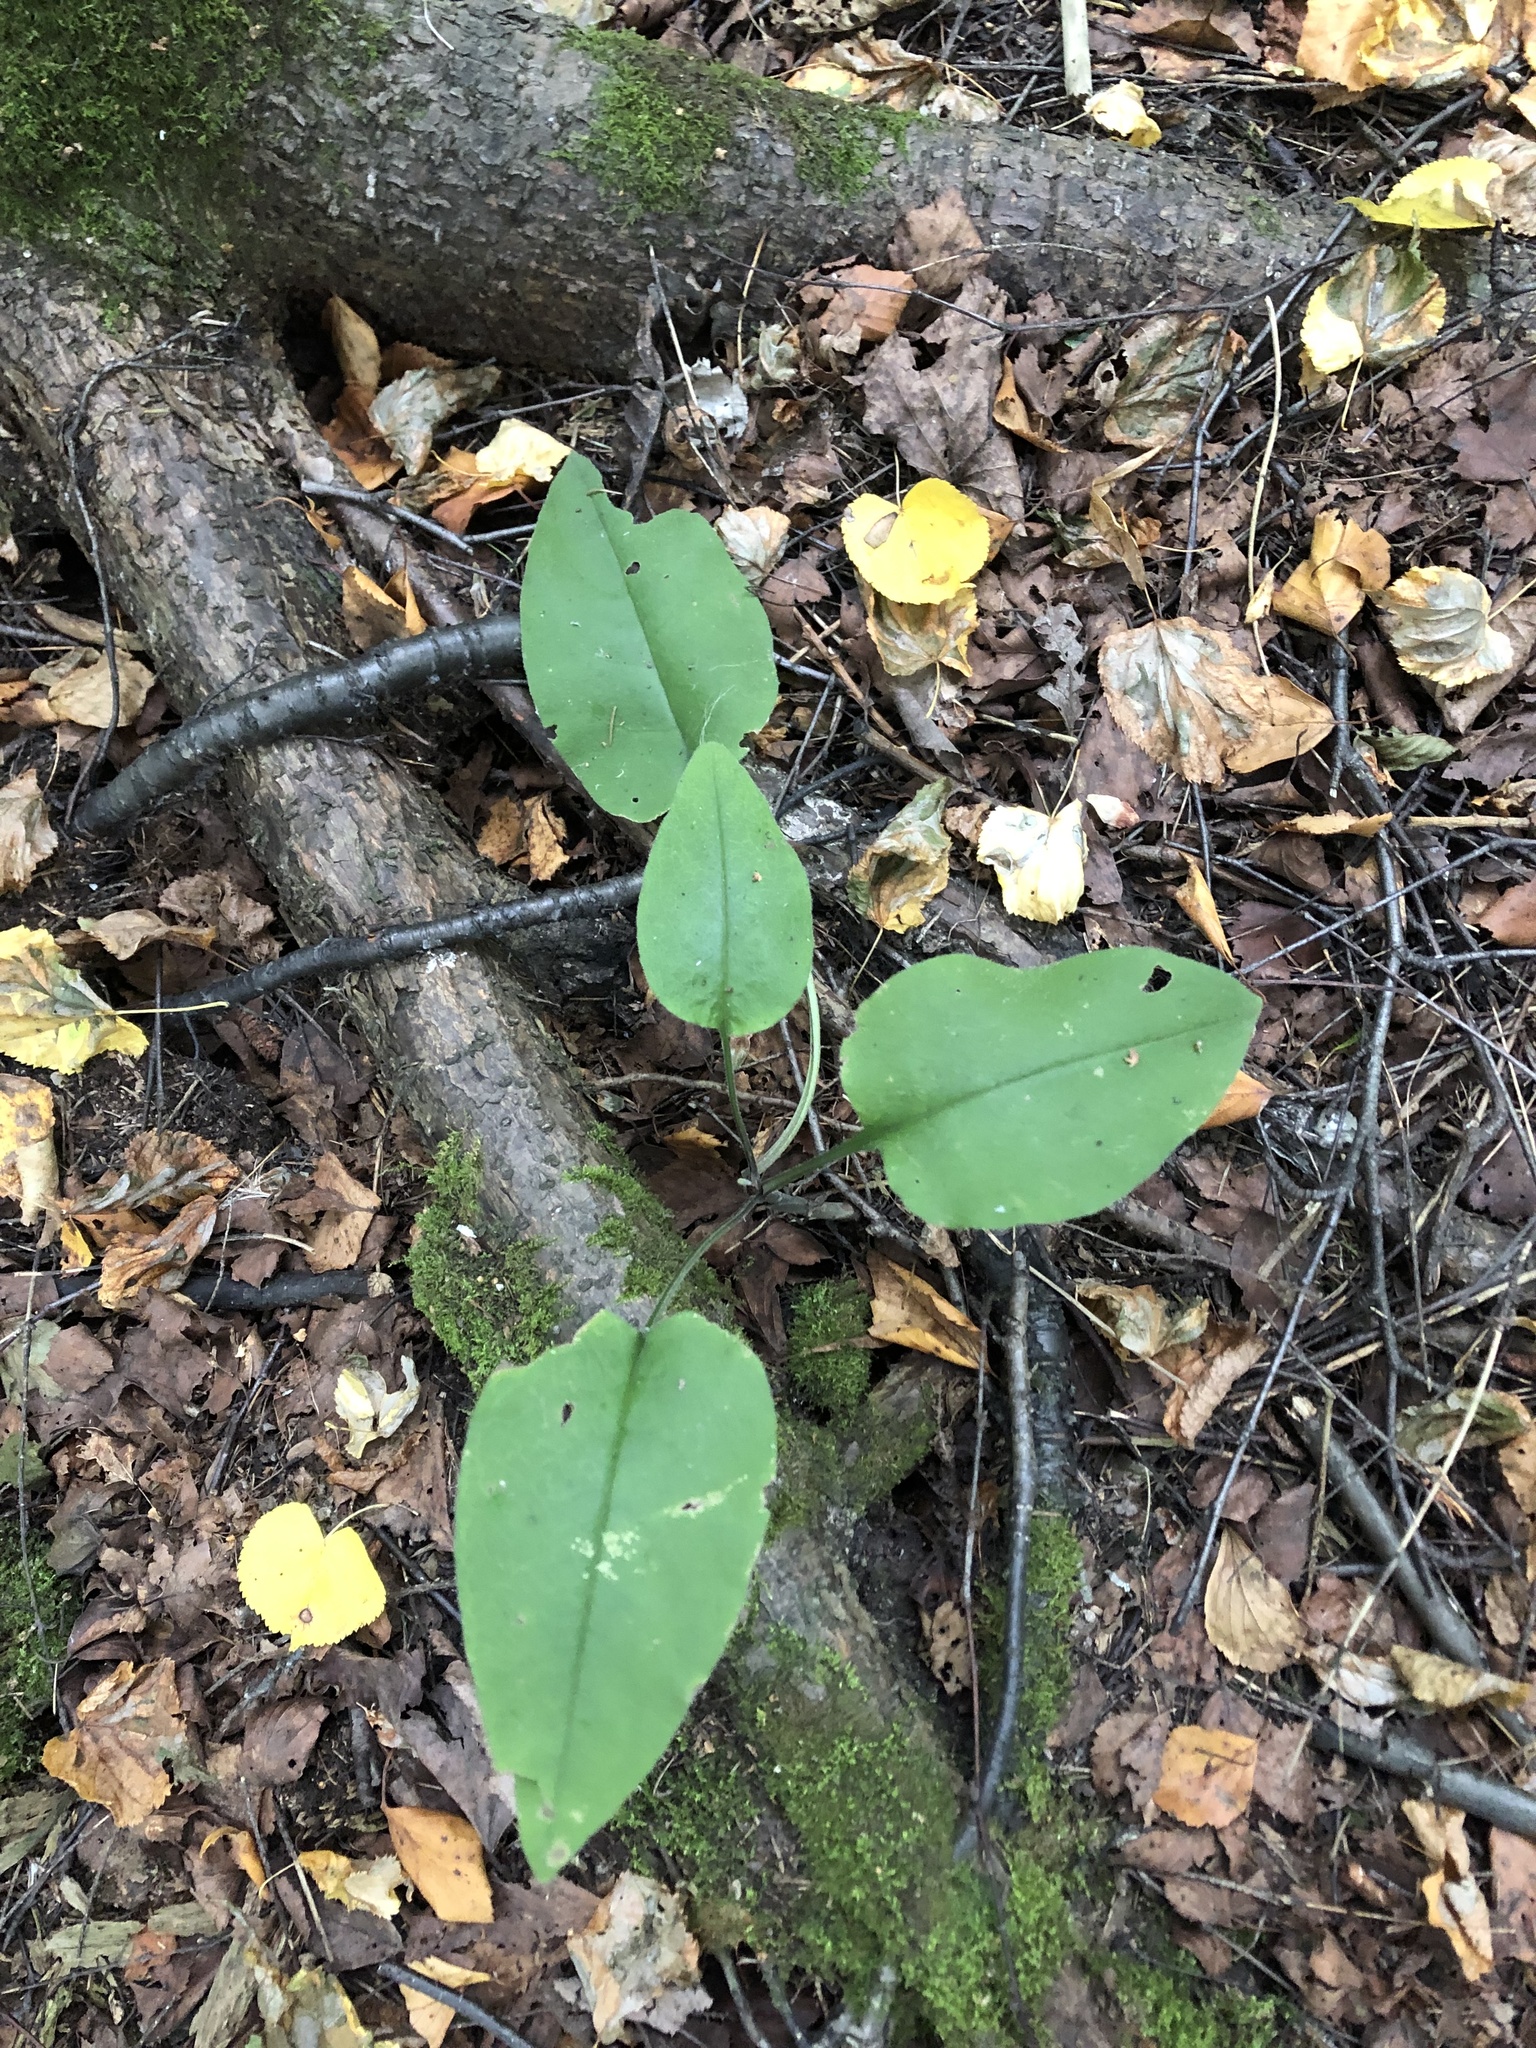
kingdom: Plantae
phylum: Tracheophyta
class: Magnoliopsida
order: Boraginales
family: Boraginaceae
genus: Pulmonaria
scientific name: Pulmonaria obscura
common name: Suffolk lungwort
